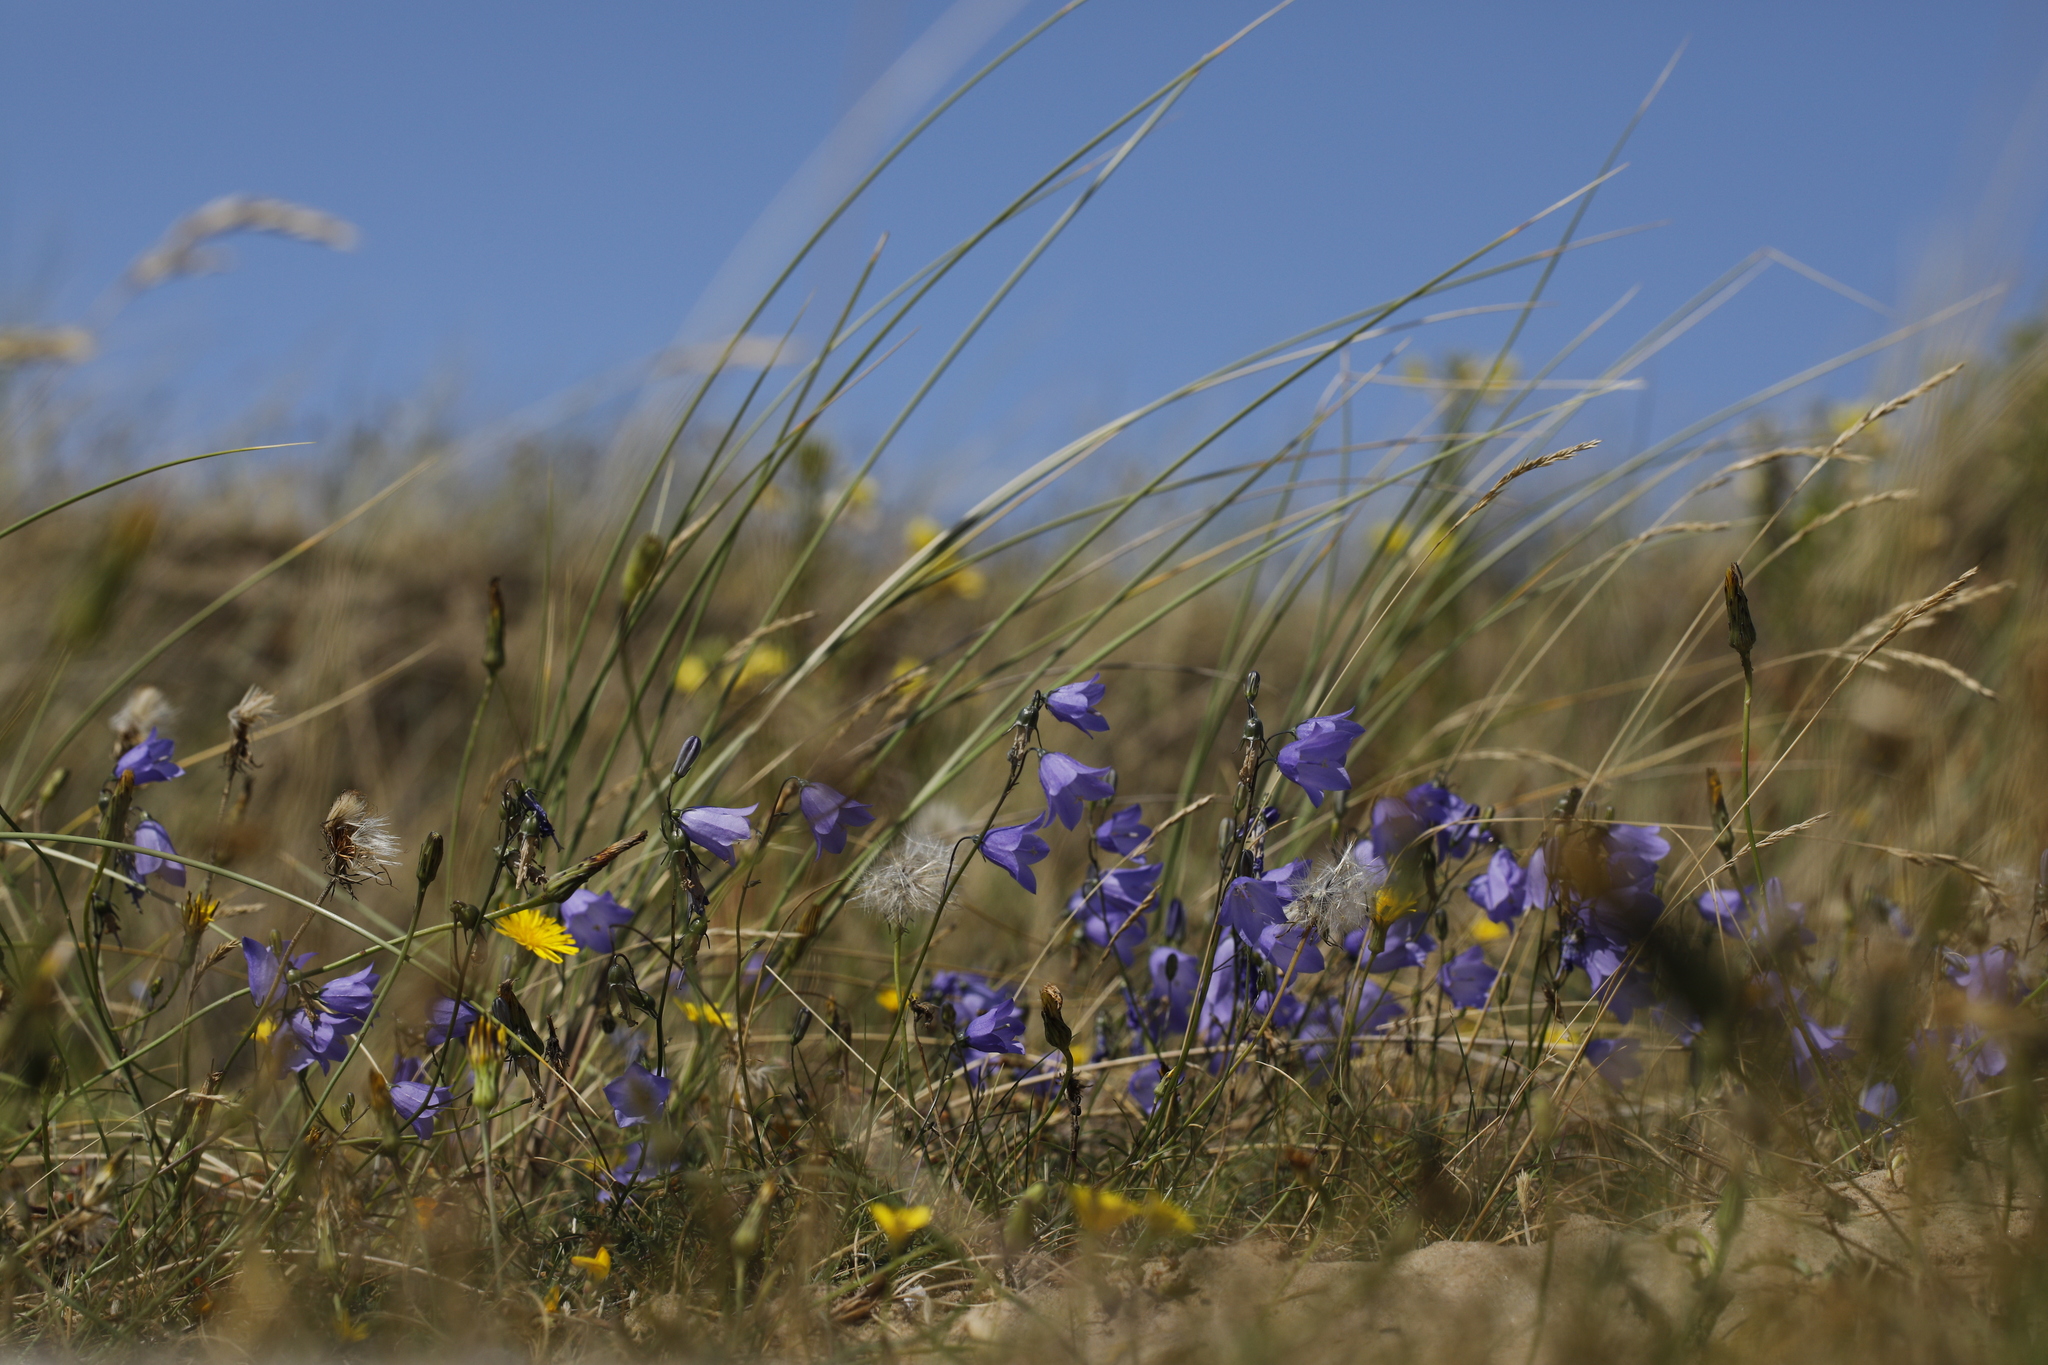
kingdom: Plantae
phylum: Tracheophyta
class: Magnoliopsida
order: Asterales
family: Campanulaceae
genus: Campanula
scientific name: Campanula rotundifolia
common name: Harebell
